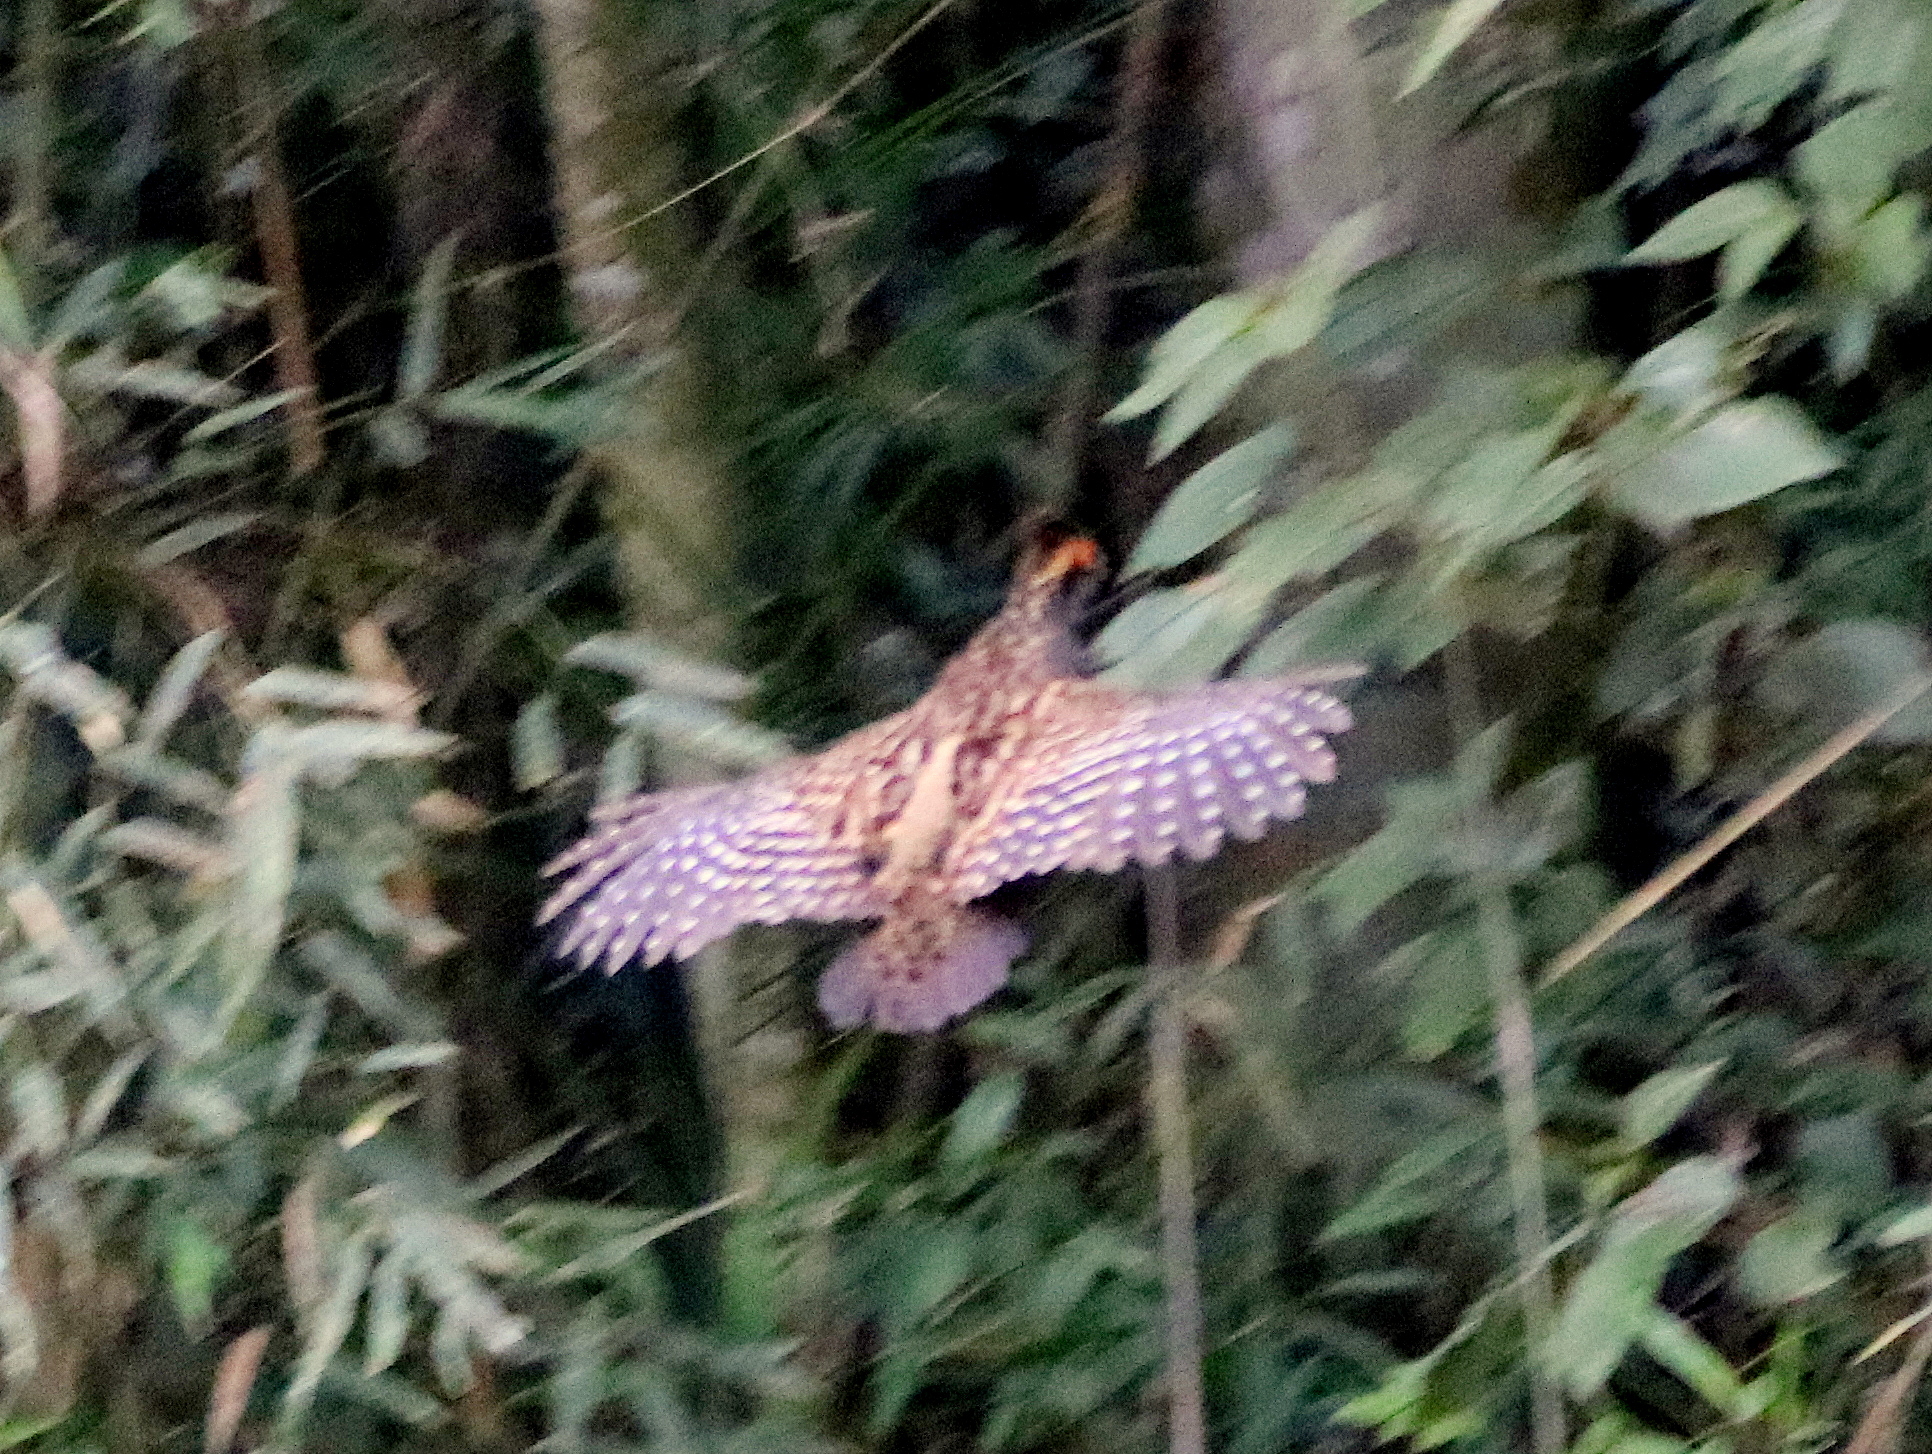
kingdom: Animalia
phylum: Chordata
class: Aves
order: Galliformes
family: Odontophoridae
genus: Odontophorus
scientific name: Odontophorus capueira
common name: Spot-winged wood quail
